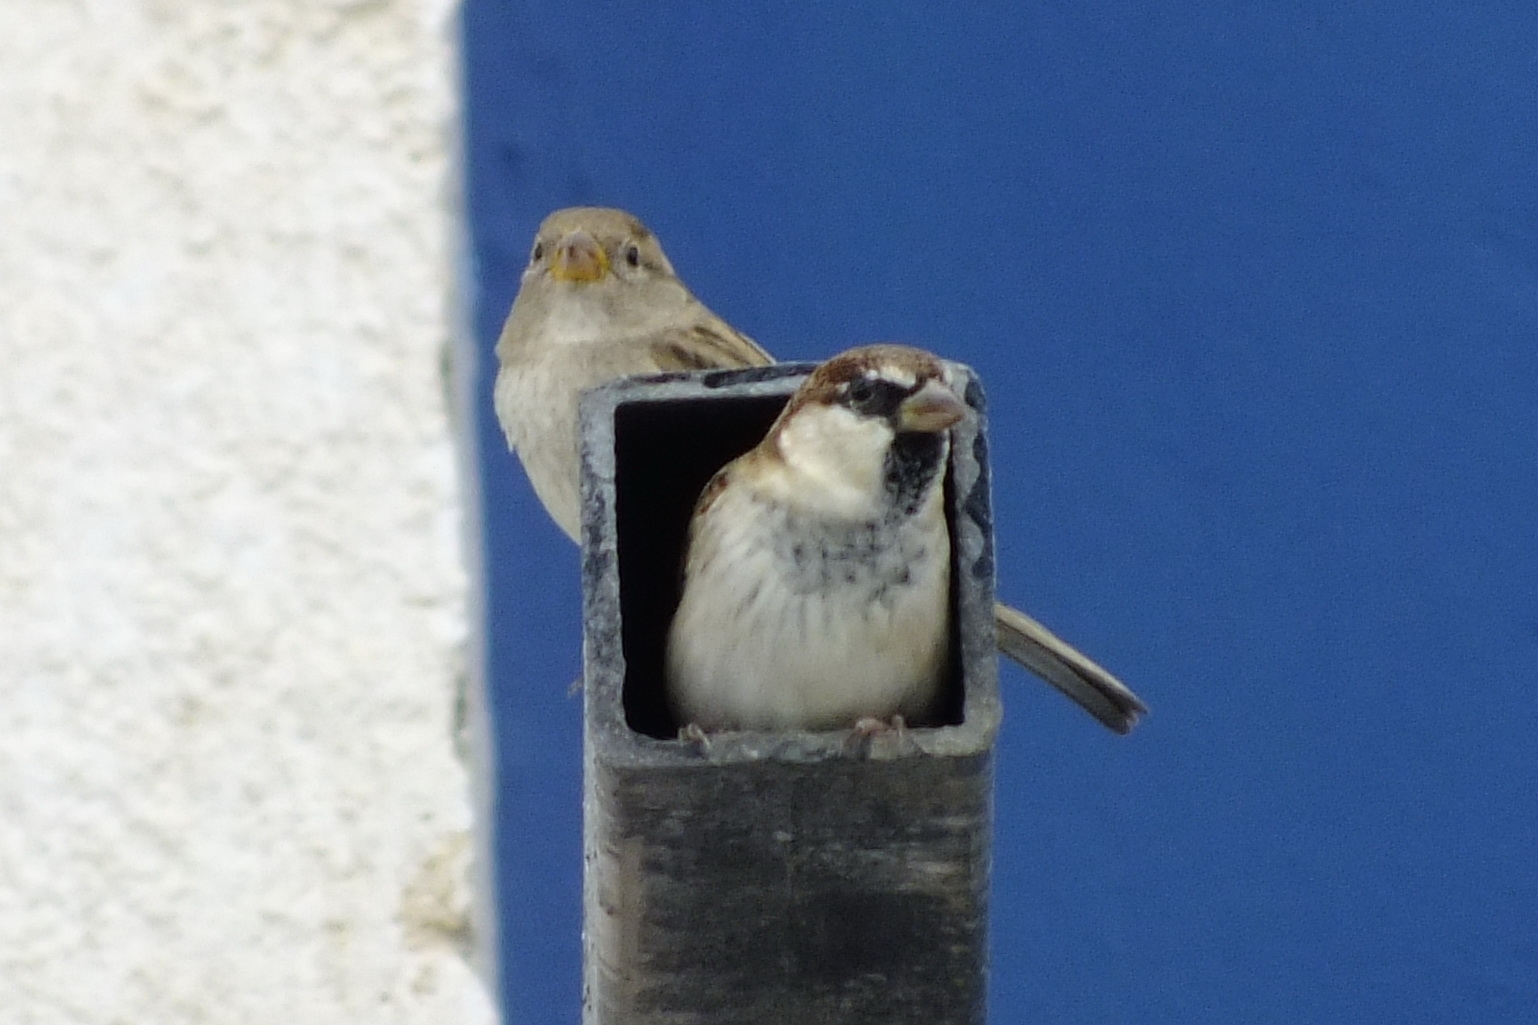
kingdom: Animalia
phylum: Chordata
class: Aves
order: Passeriformes
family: Passeridae
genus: Passer
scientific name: Passer italiae
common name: Italian sparrow
